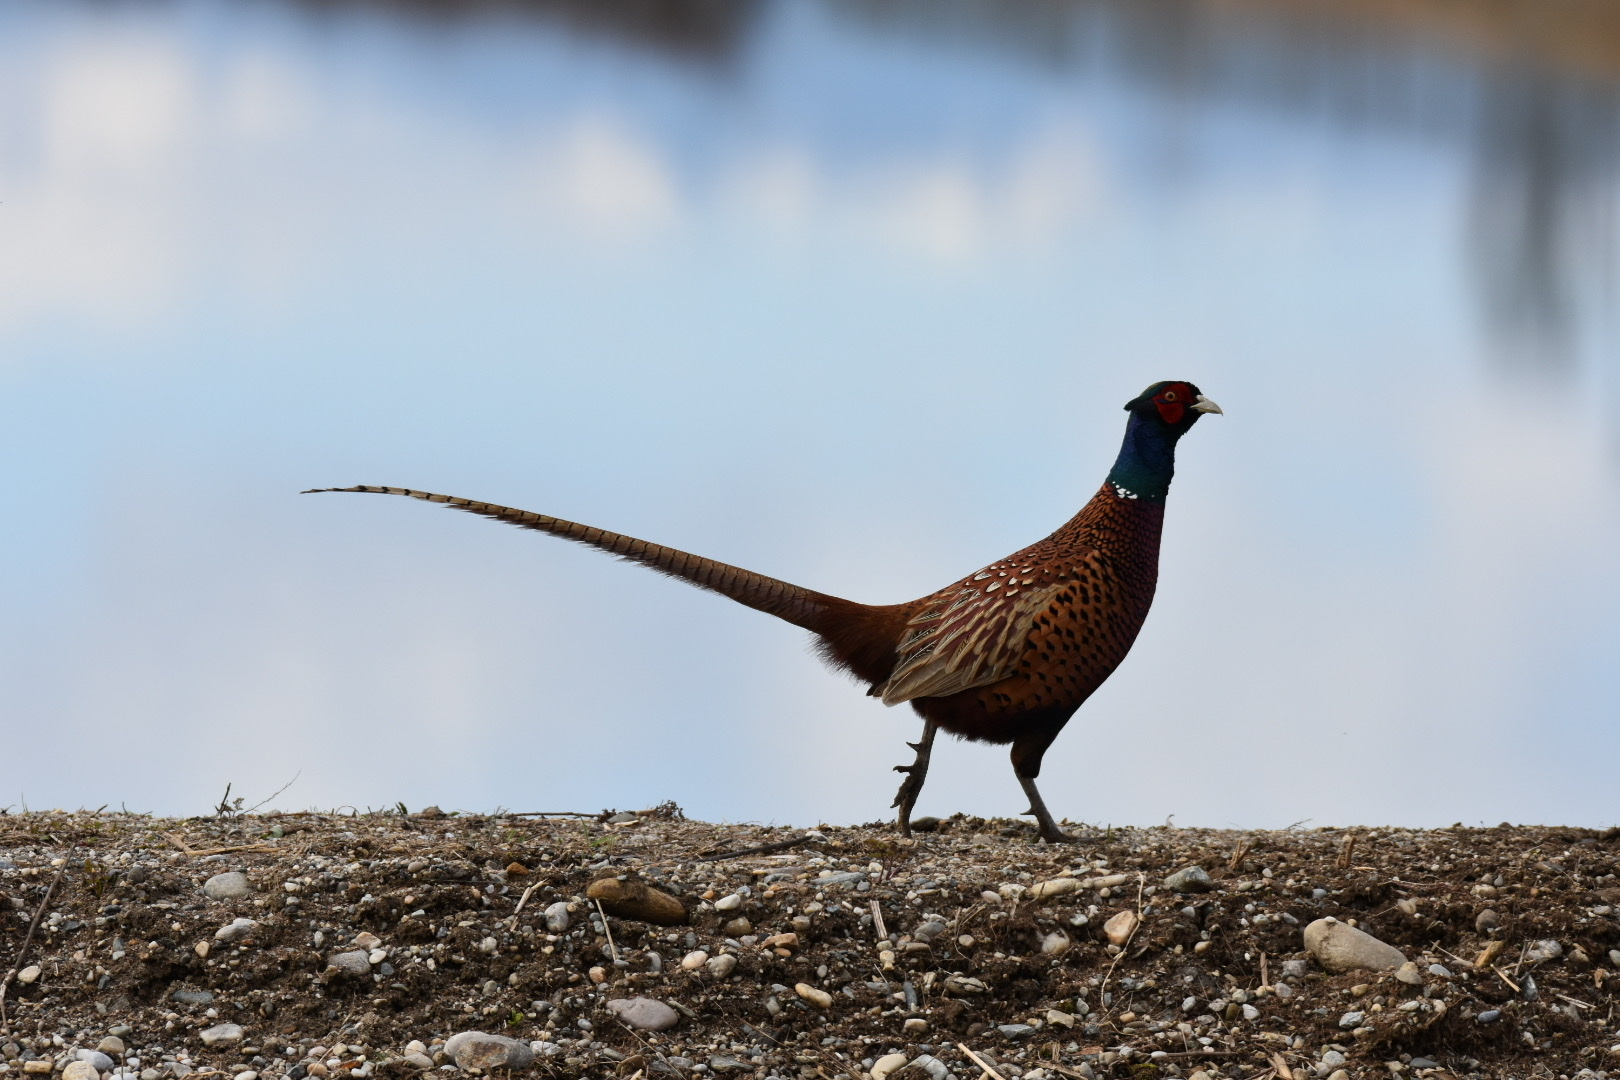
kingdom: Animalia
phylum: Chordata
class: Aves
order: Galliformes
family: Phasianidae
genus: Phasianus
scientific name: Phasianus colchicus
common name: Common pheasant
